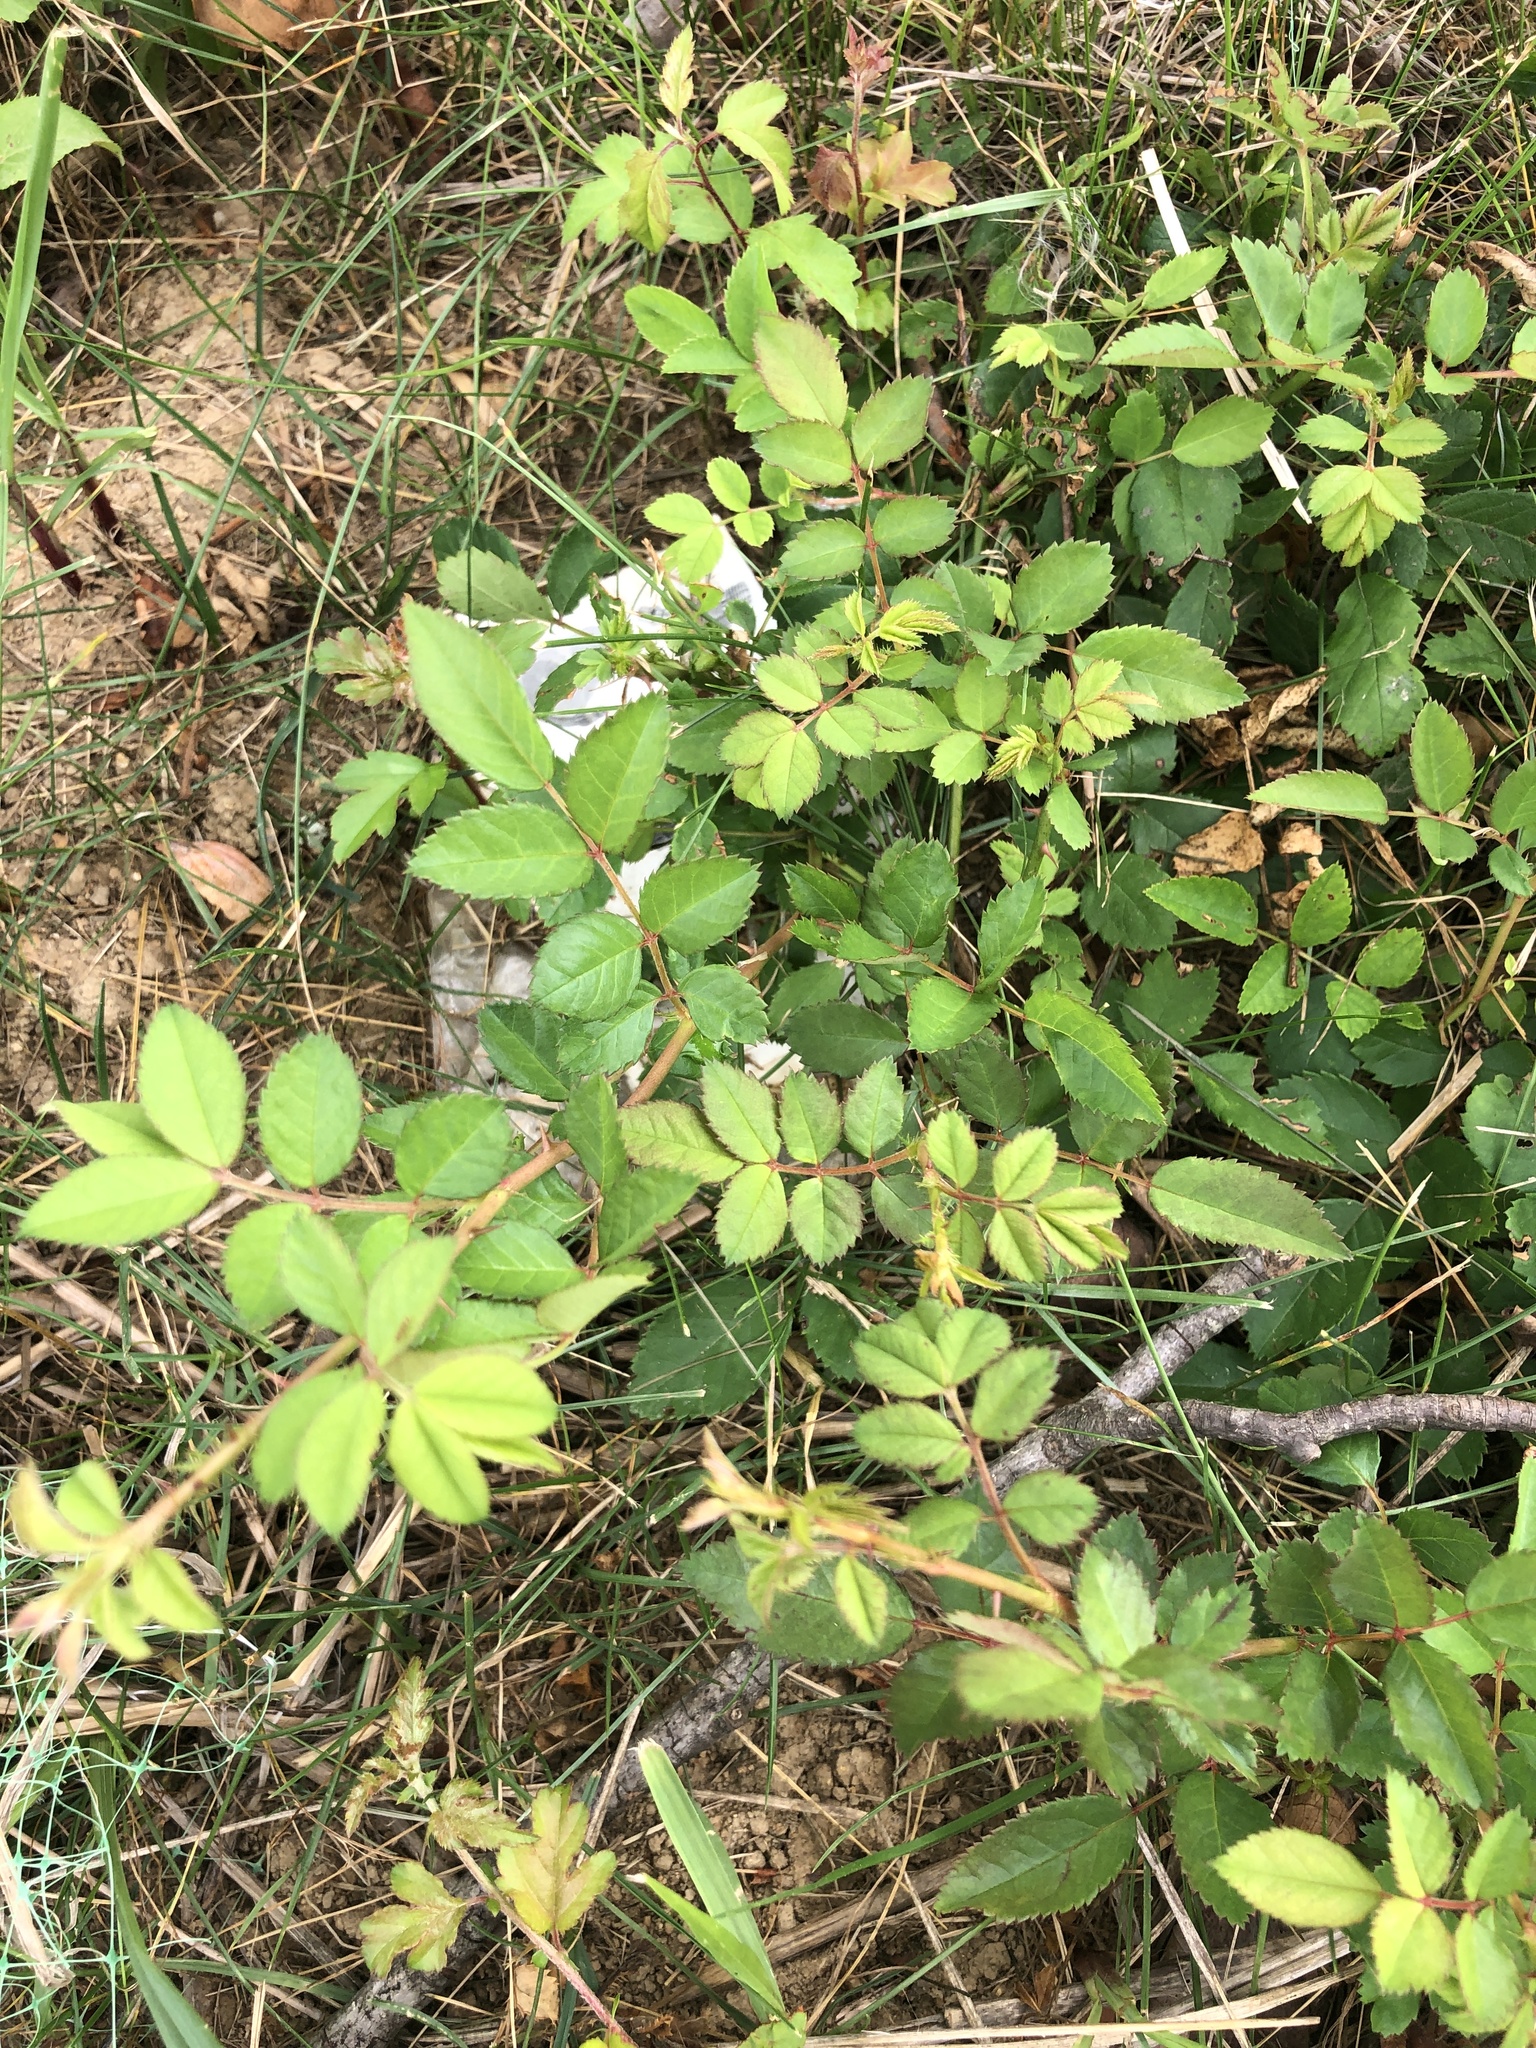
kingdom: Plantae
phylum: Tracheophyta
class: Magnoliopsida
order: Rosales
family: Rosaceae
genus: Rosa
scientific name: Rosa multiflora
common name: Multiflora rose
